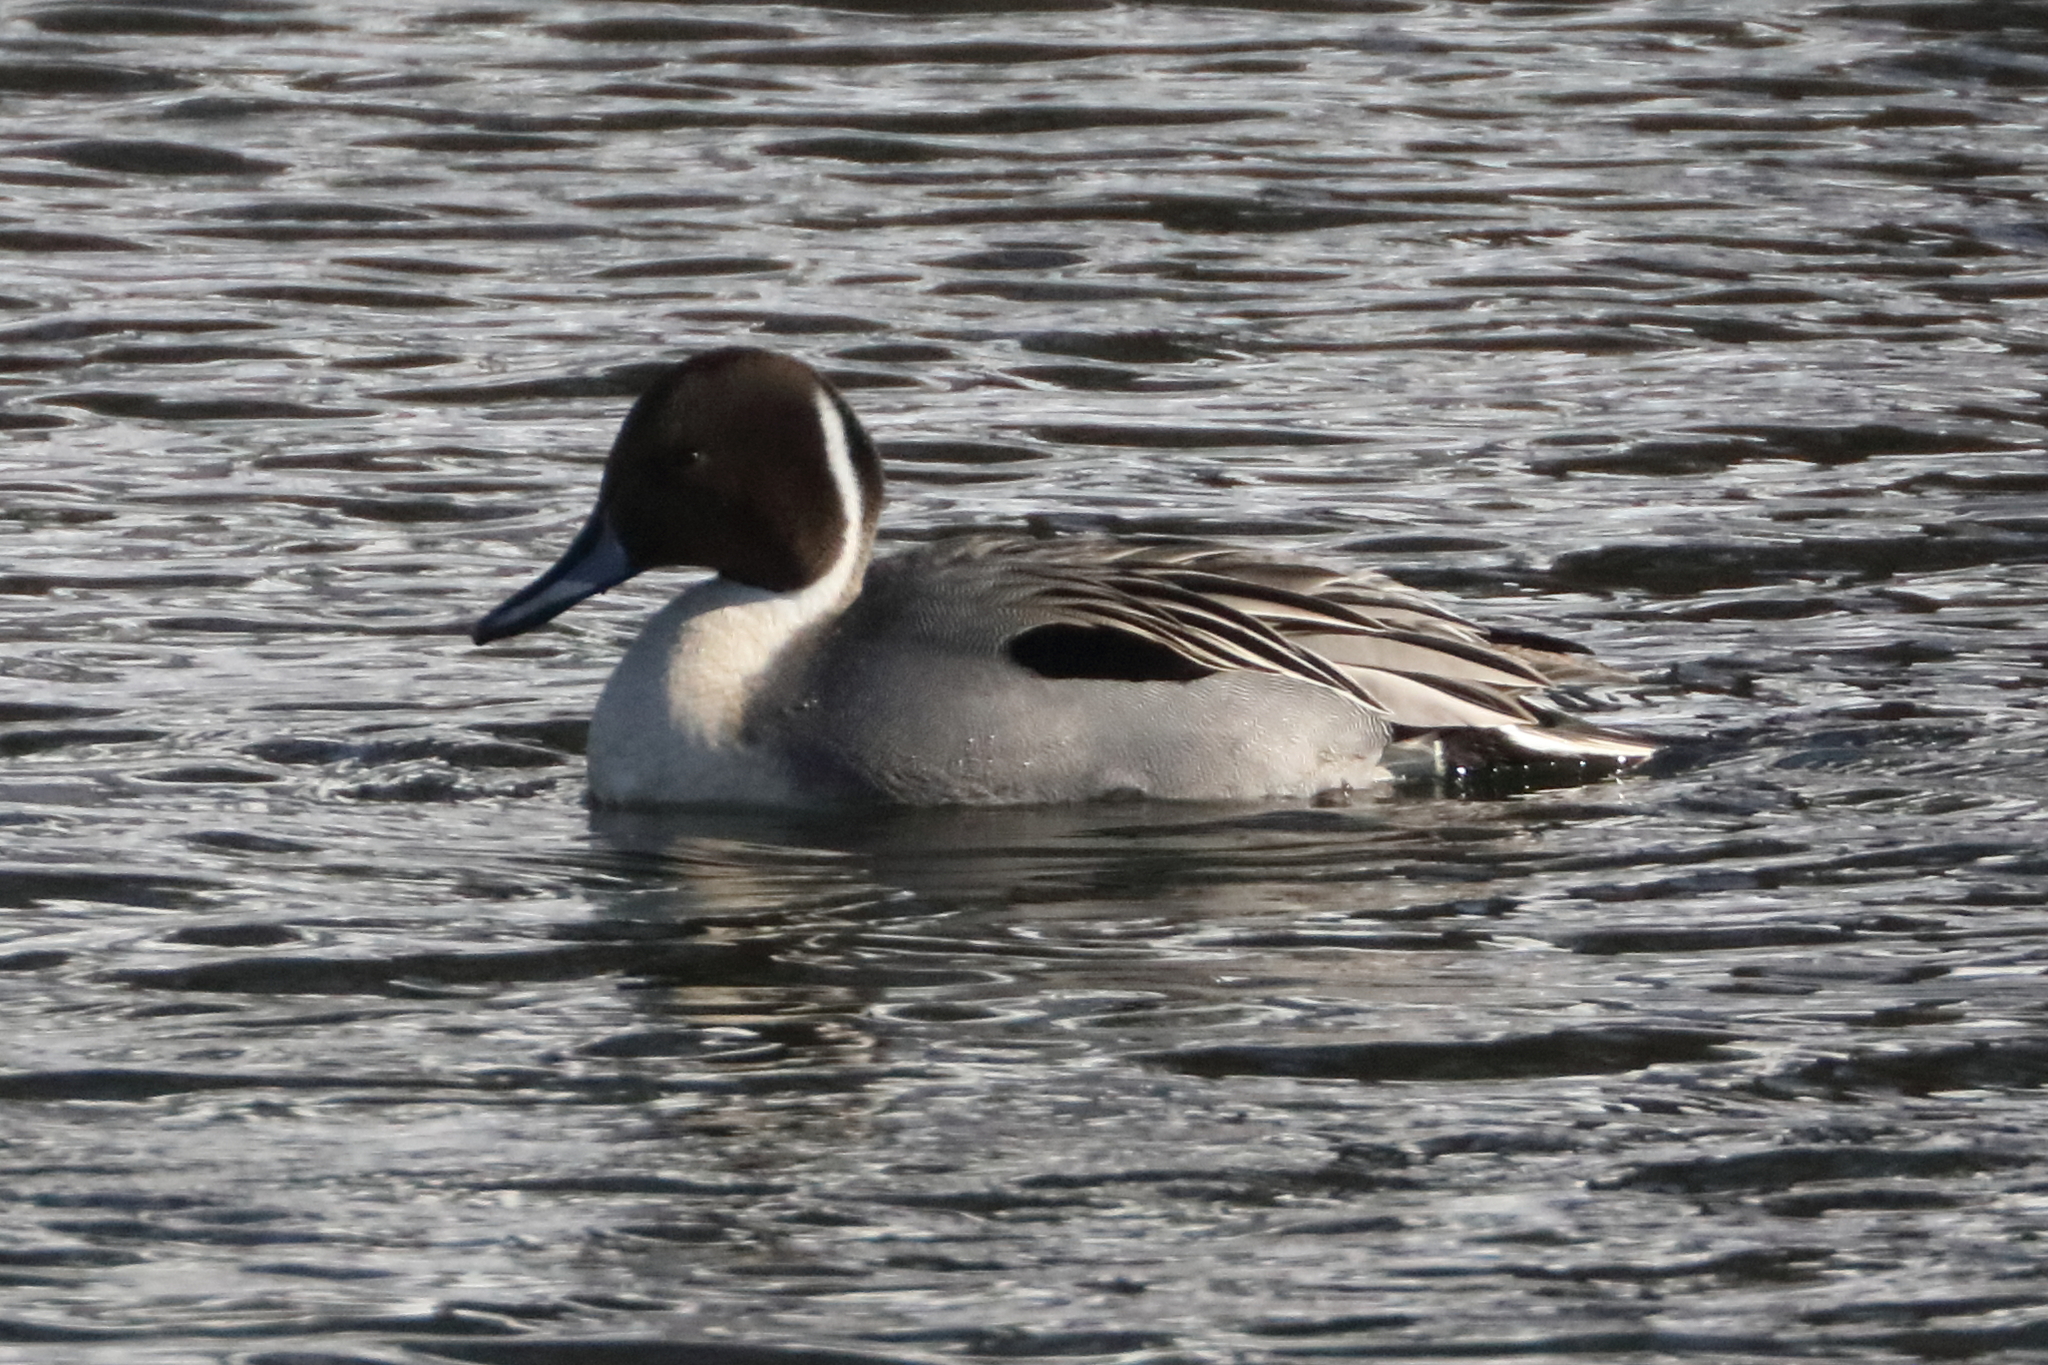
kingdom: Animalia
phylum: Chordata
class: Aves
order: Anseriformes
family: Anatidae
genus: Anas
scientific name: Anas acuta
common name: Northern pintail
